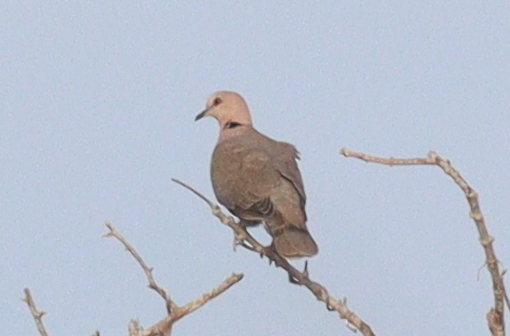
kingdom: Animalia
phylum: Chordata
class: Aves
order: Columbiformes
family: Columbidae
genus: Streptopelia
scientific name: Streptopelia semitorquata
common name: Red-eyed dove
